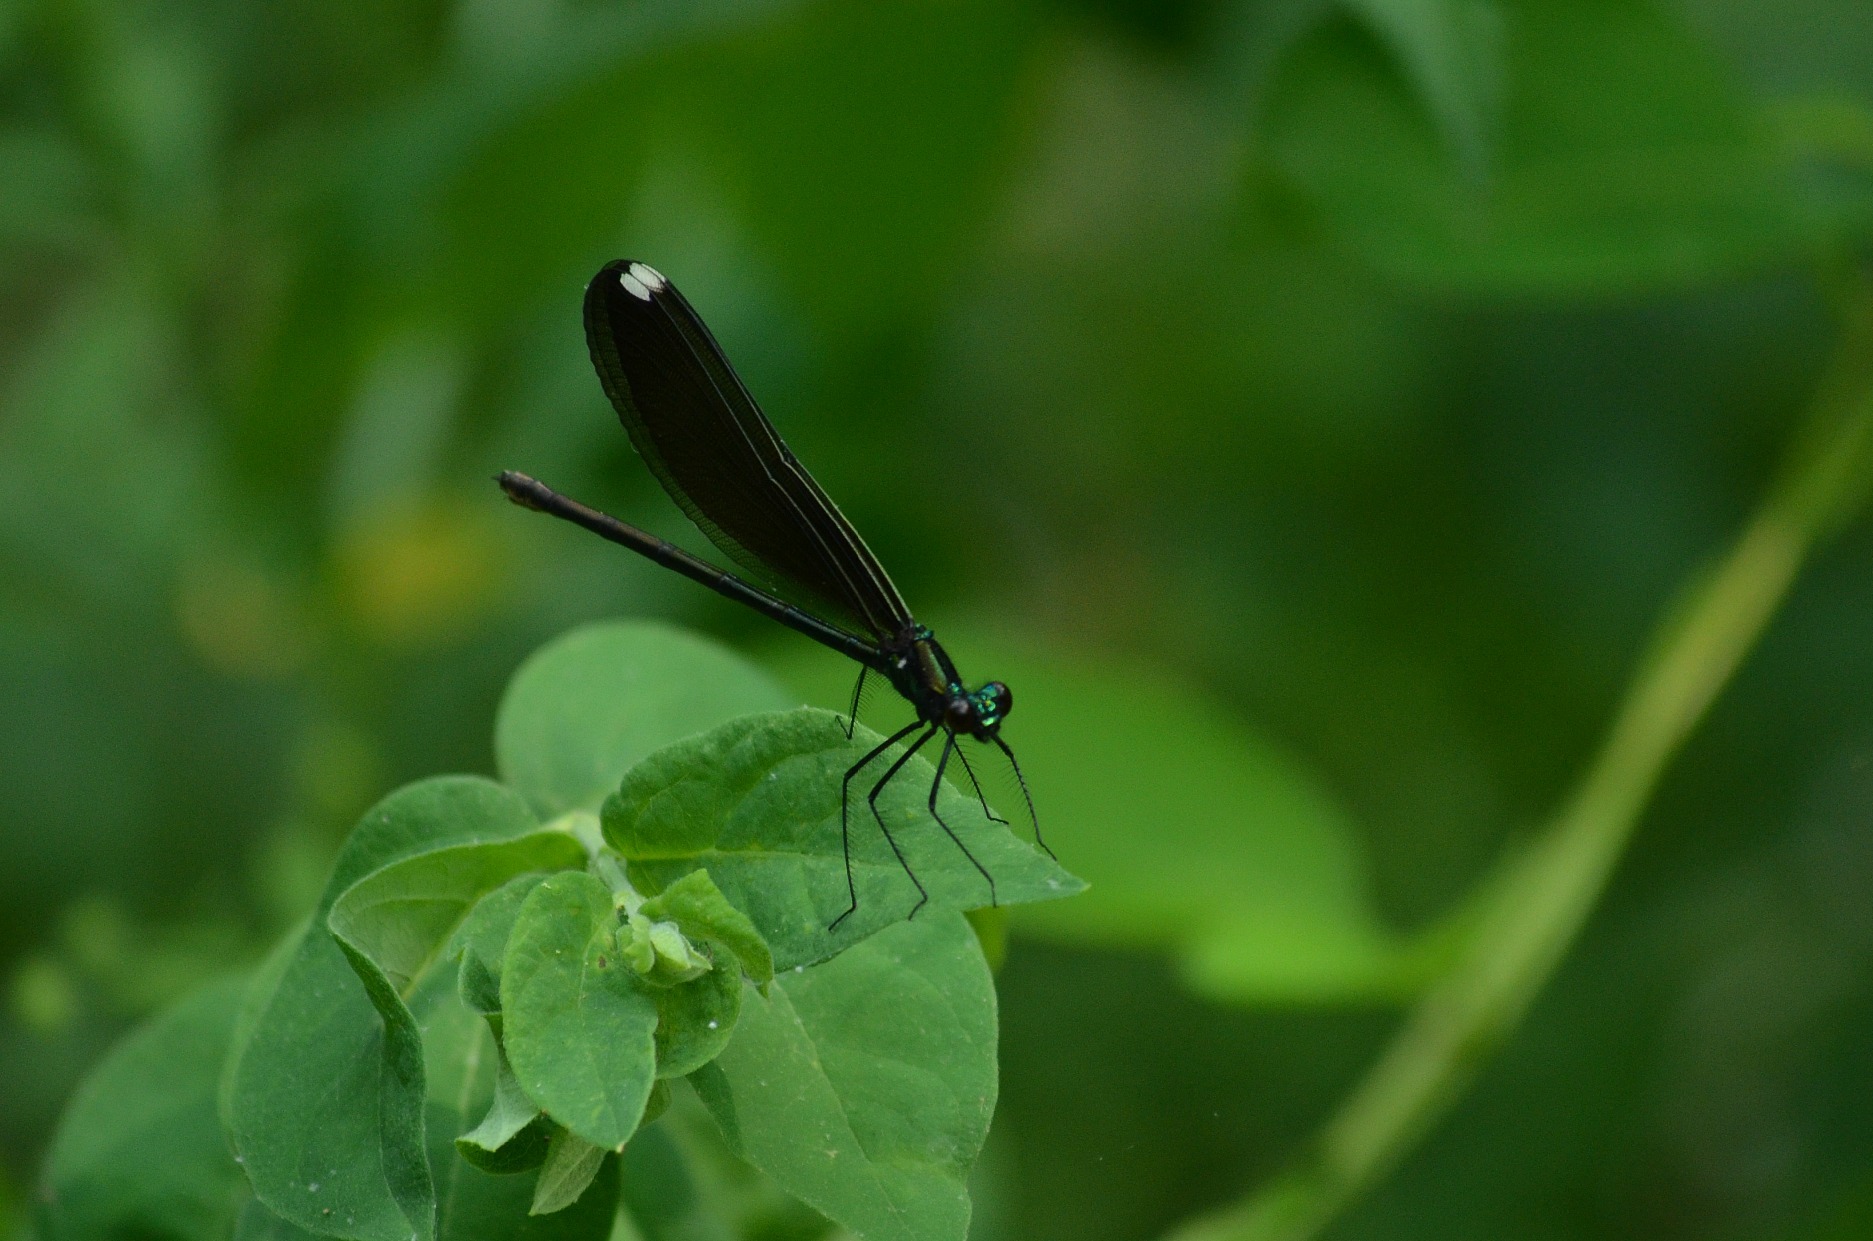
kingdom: Animalia
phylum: Arthropoda
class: Insecta
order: Odonata
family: Calopterygidae
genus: Calopteryx
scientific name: Calopteryx maculata
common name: Ebony jewelwing
